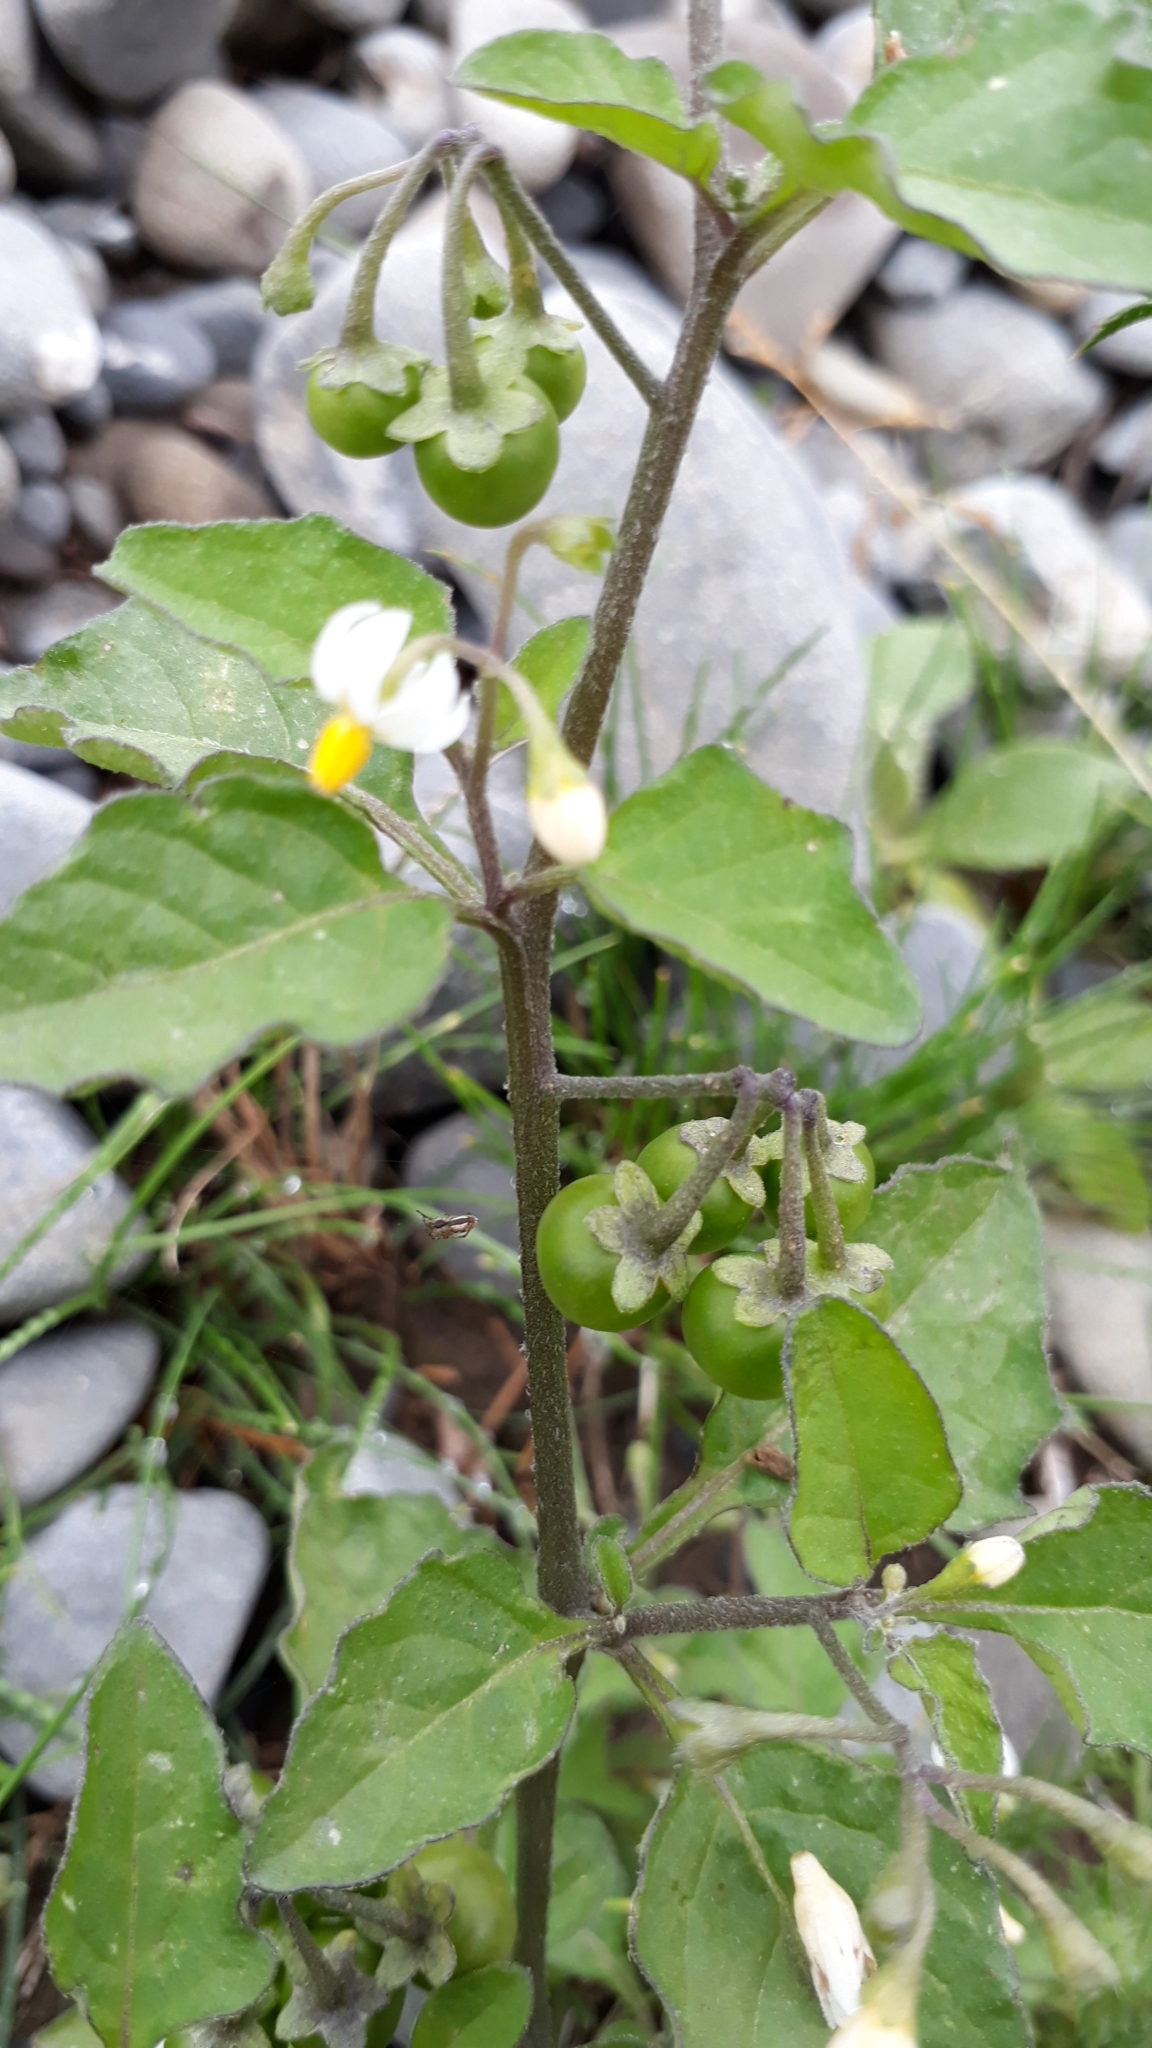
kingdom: Plantae
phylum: Tracheophyta
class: Magnoliopsida
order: Solanales
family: Solanaceae
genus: Solanum
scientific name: Solanum nigrum
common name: Black nightshade
